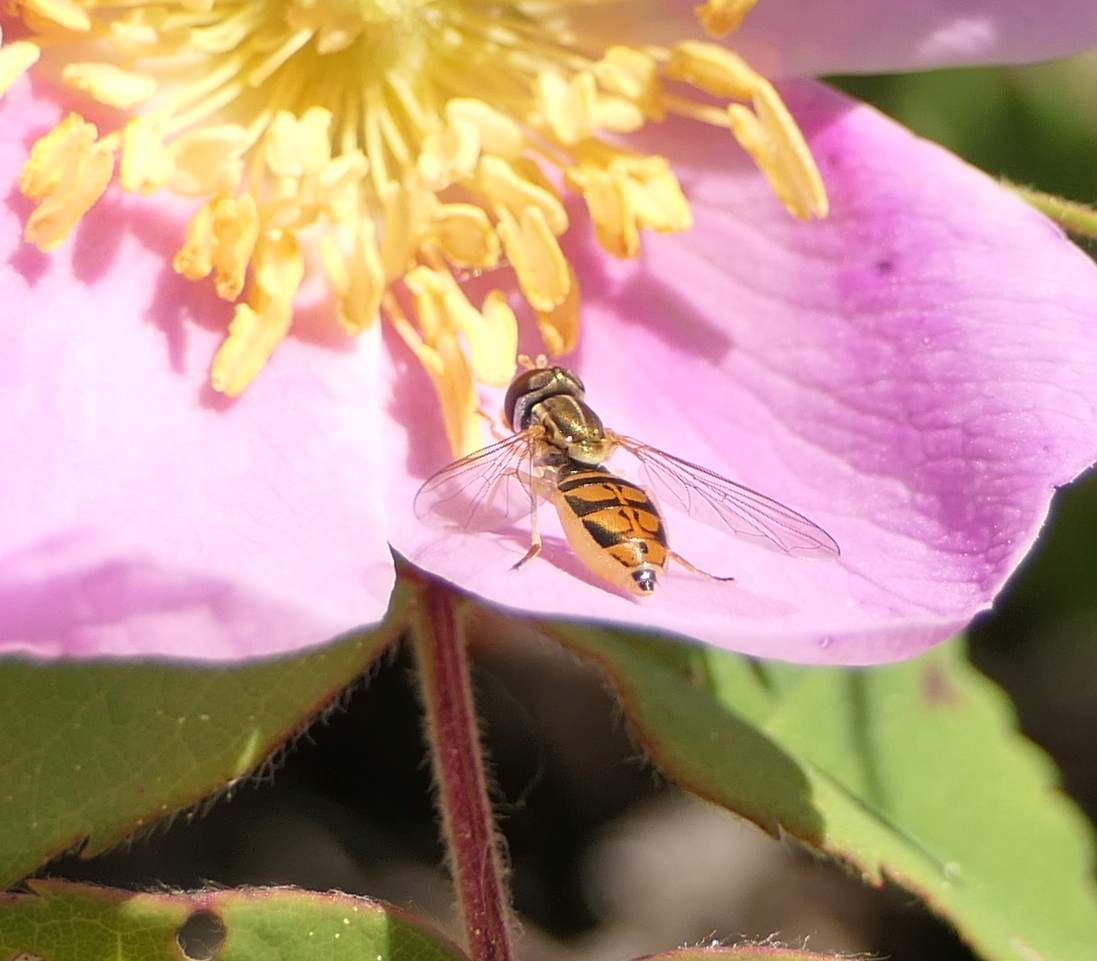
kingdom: Animalia
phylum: Arthropoda
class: Insecta
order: Diptera
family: Syrphidae
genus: Toxomerus
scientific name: Toxomerus marginatus
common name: Syrphid fly
